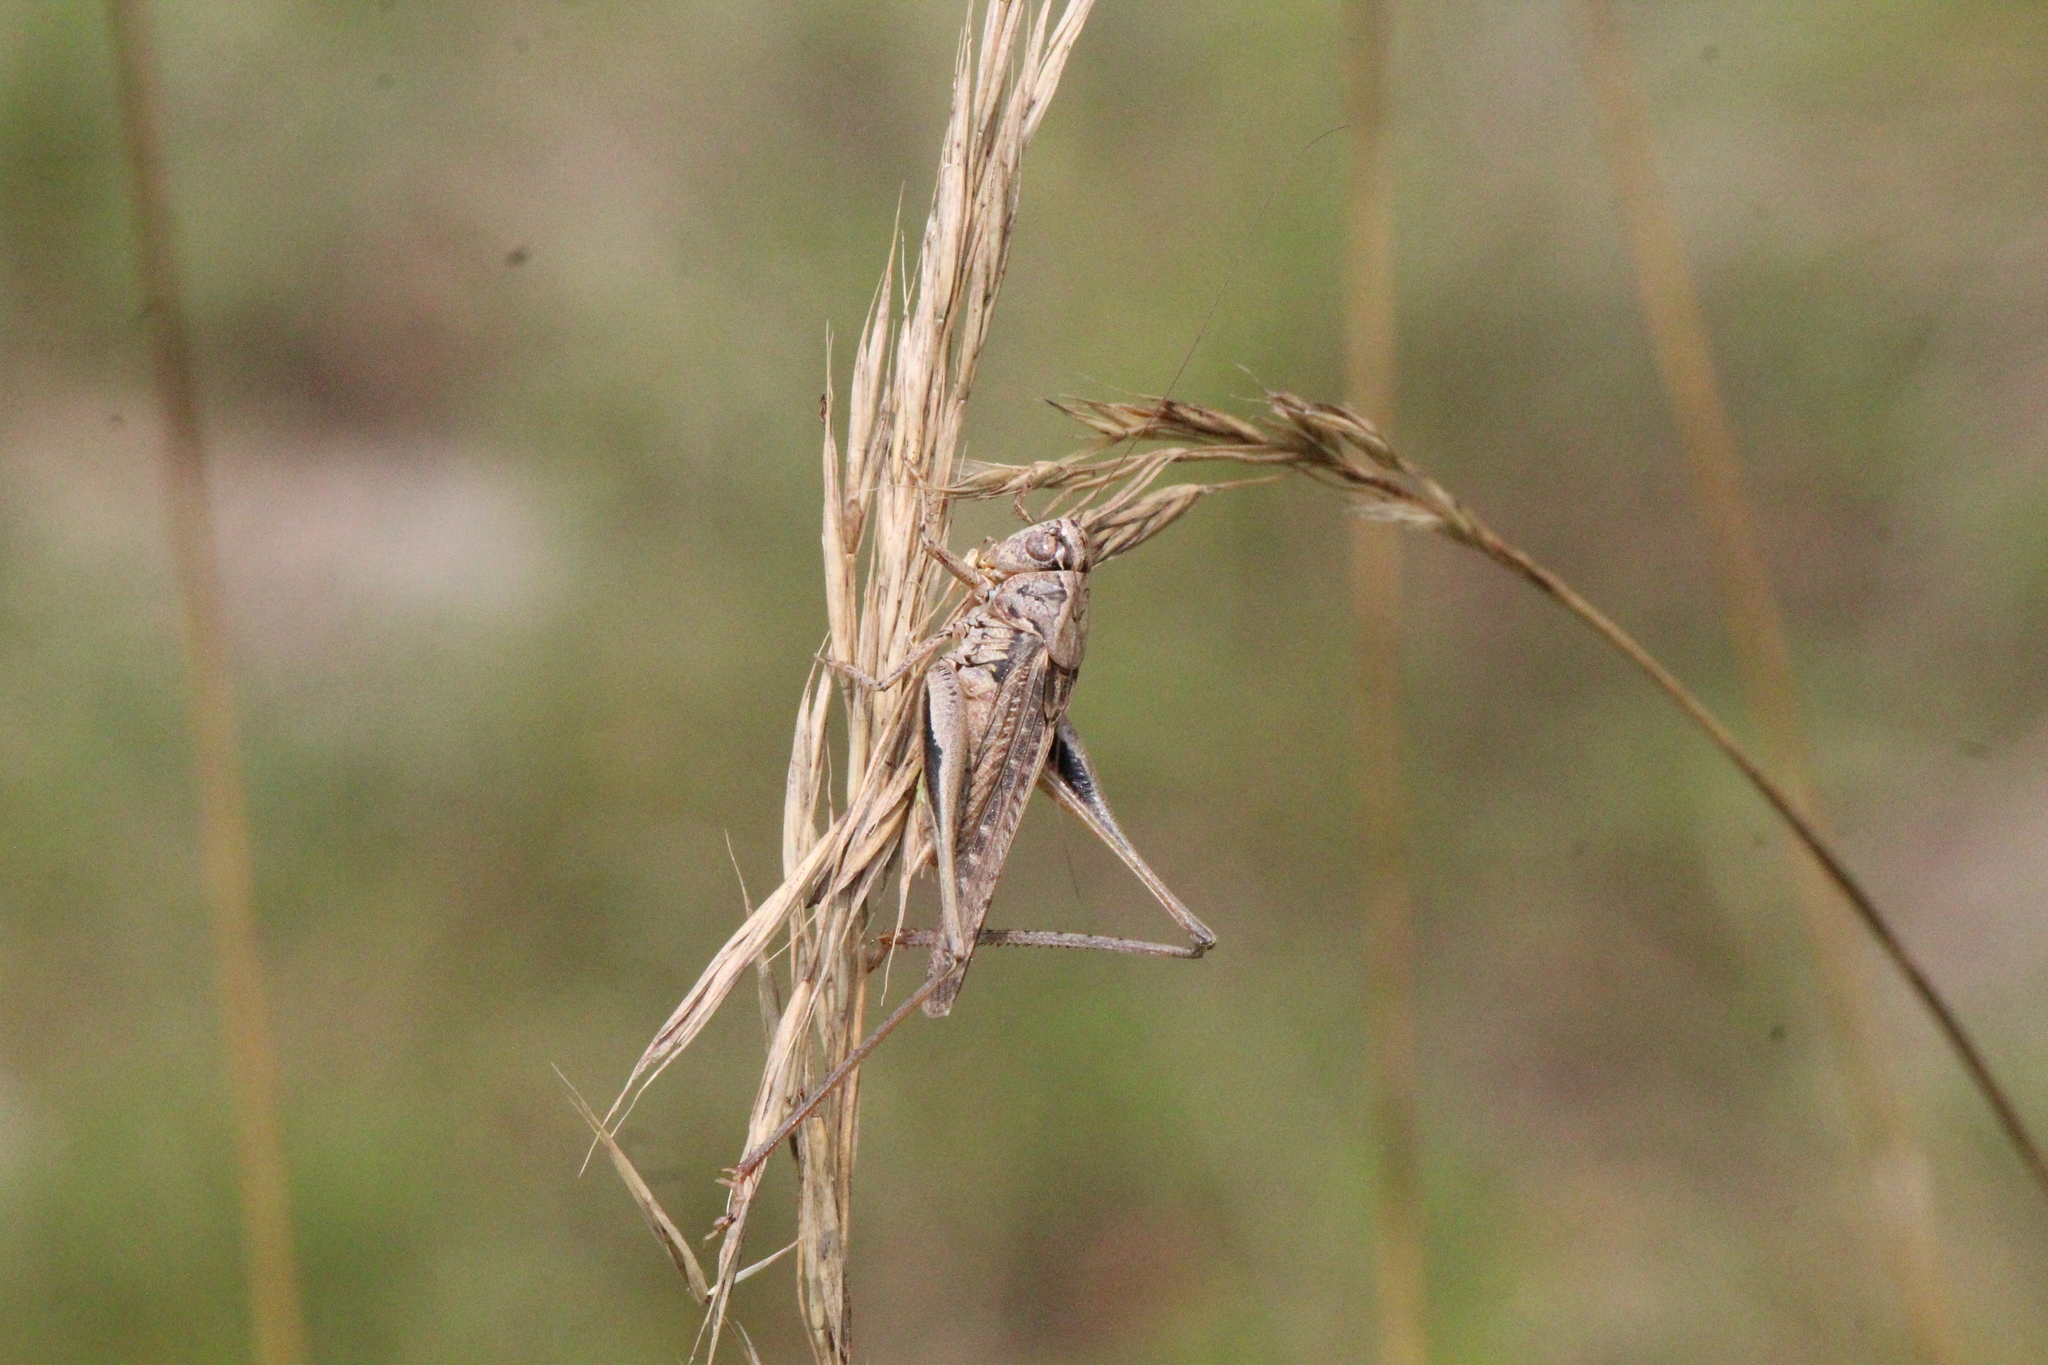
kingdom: Animalia
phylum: Arthropoda
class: Insecta
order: Orthoptera
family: Tettigoniidae
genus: Platycleis
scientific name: Platycleis albopunctata
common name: Grey bush-cricket
